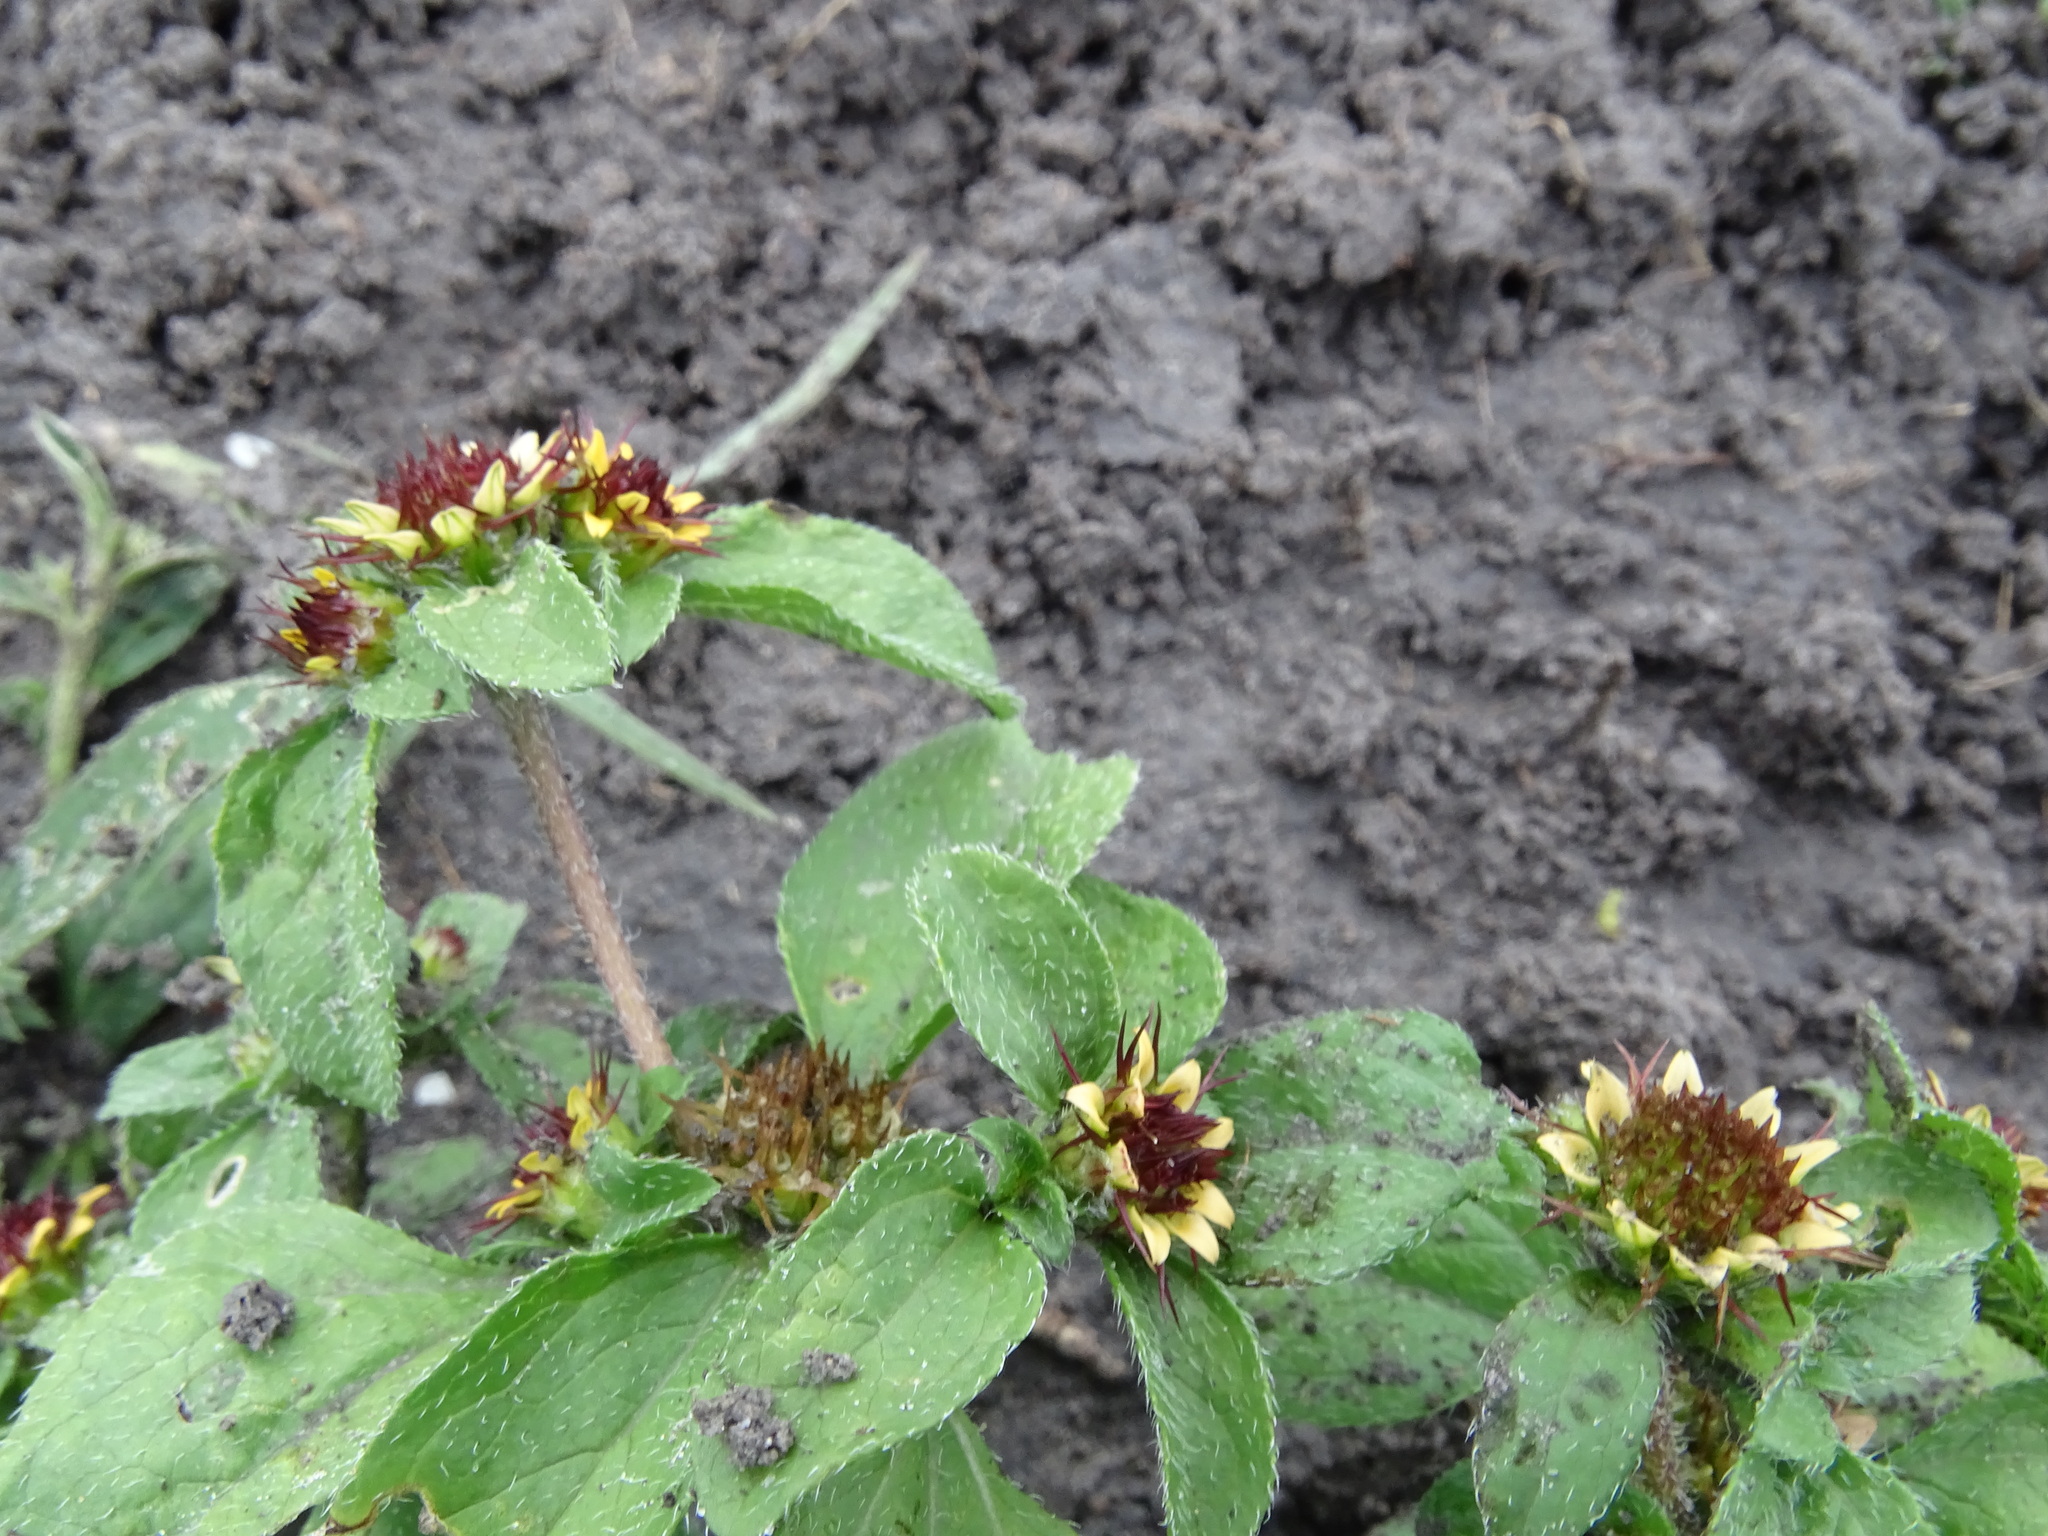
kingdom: Plantae
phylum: Tracheophyta
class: Magnoliopsida
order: Asterales
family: Asteraceae
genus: Sanvitalia
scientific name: Sanvitalia ocymoides
